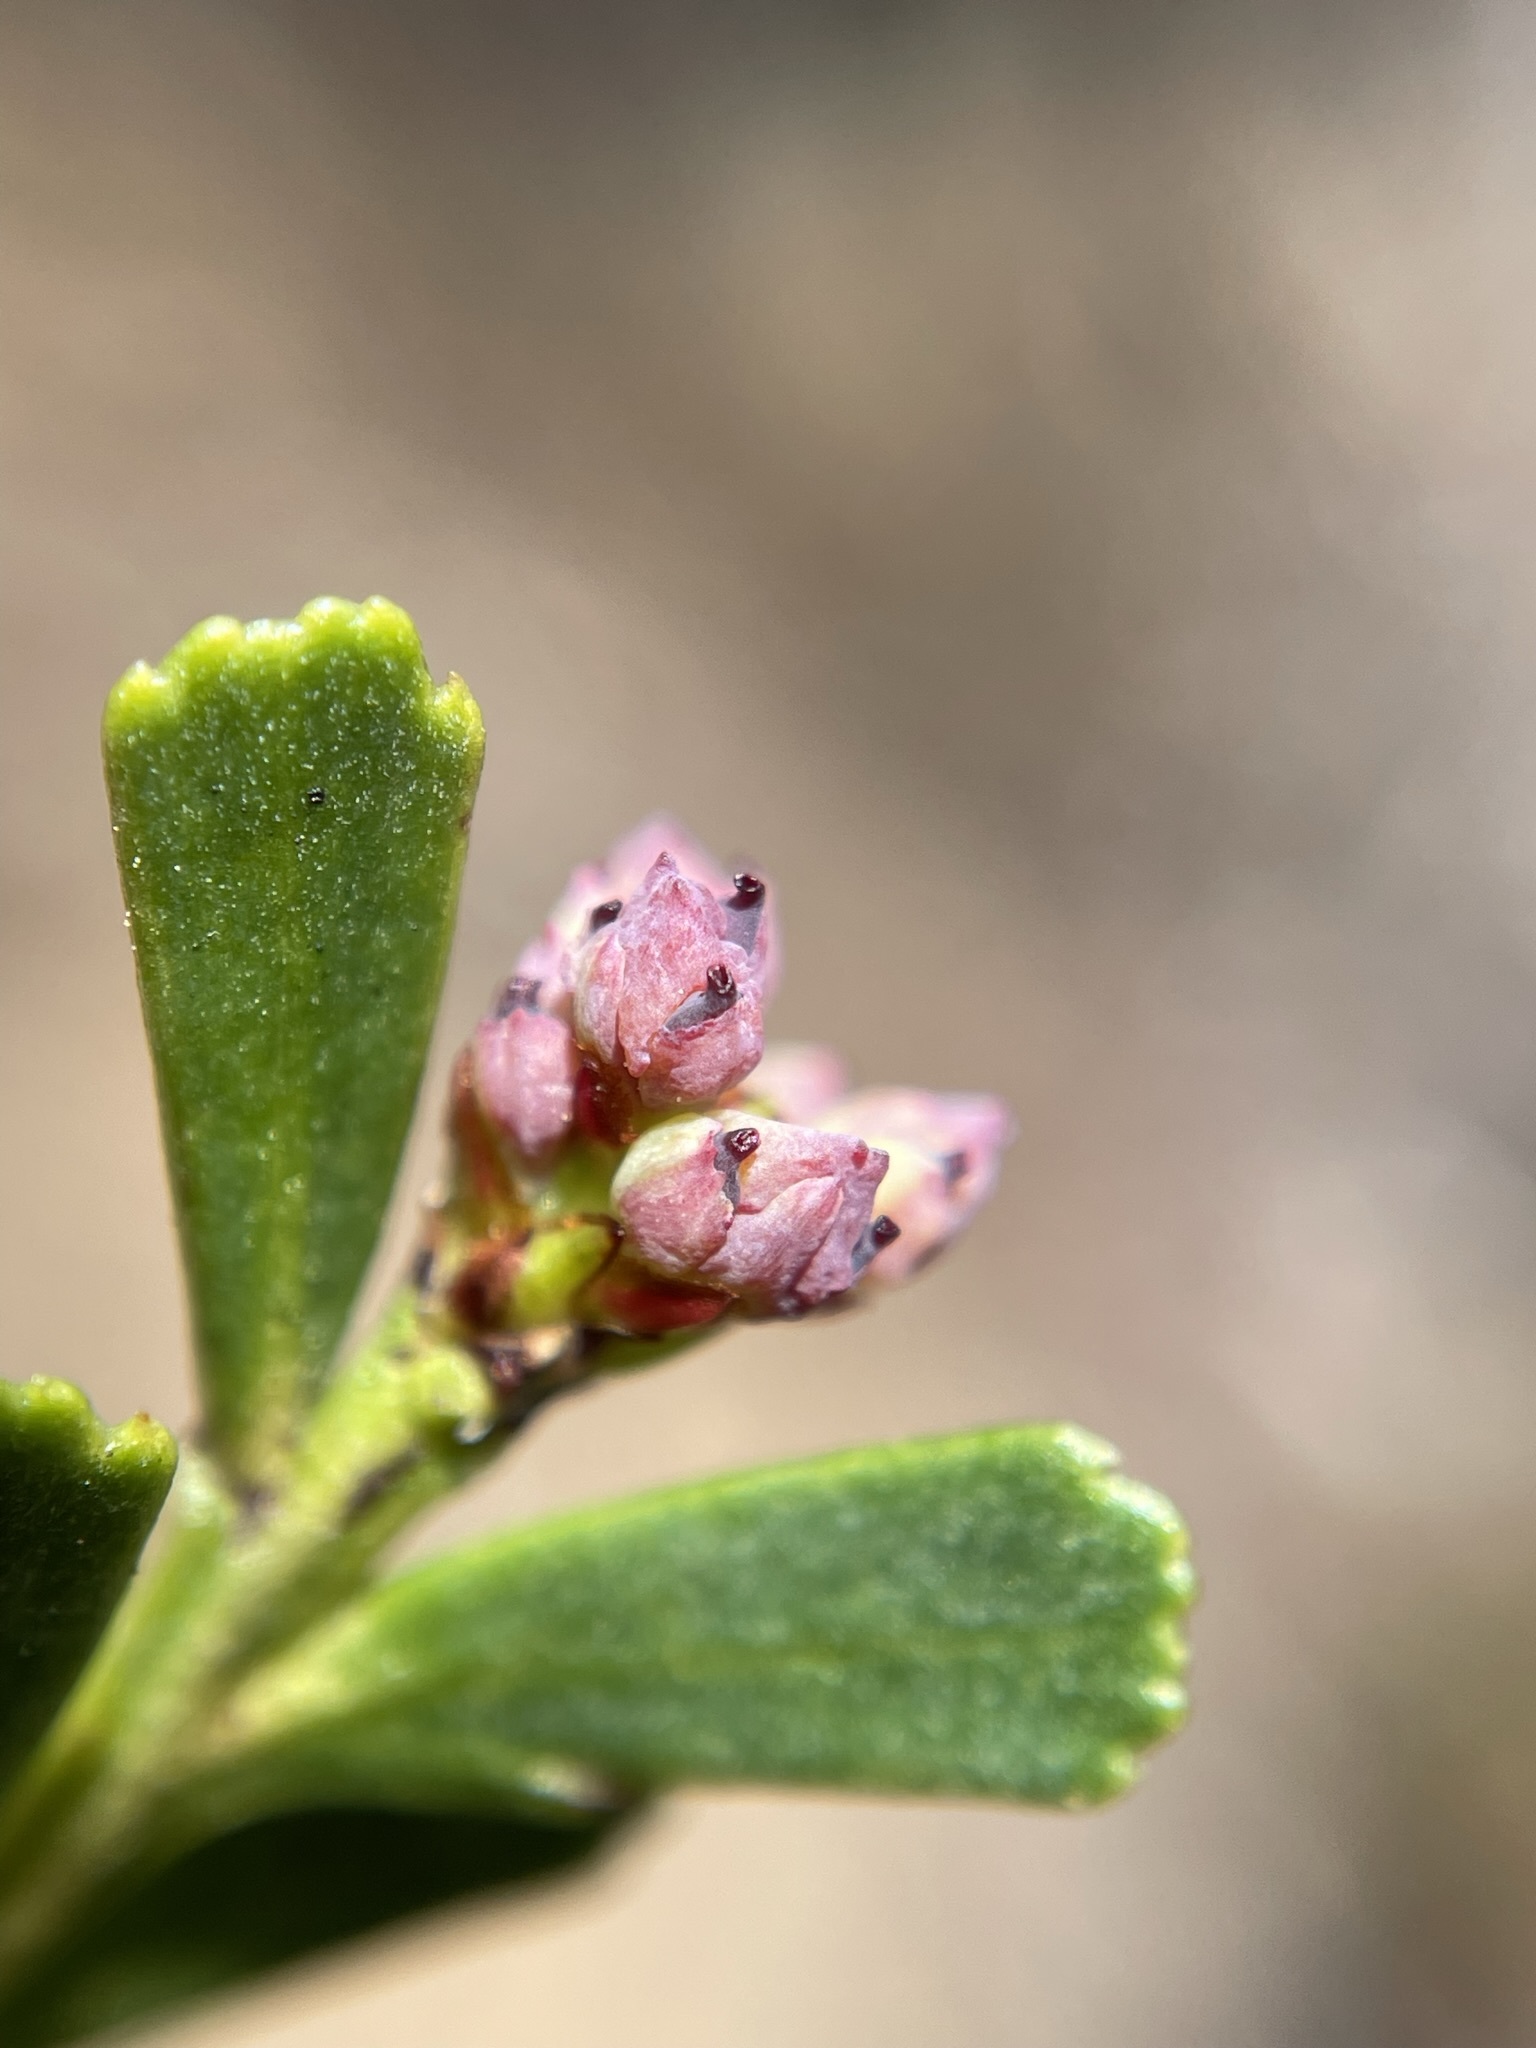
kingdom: Plantae
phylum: Tracheophyta
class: Pinopsida
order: Pinales
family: Phyllocladaceae
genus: Phyllocladus
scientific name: Phyllocladus aspleniifolius
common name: Celery-top pine
